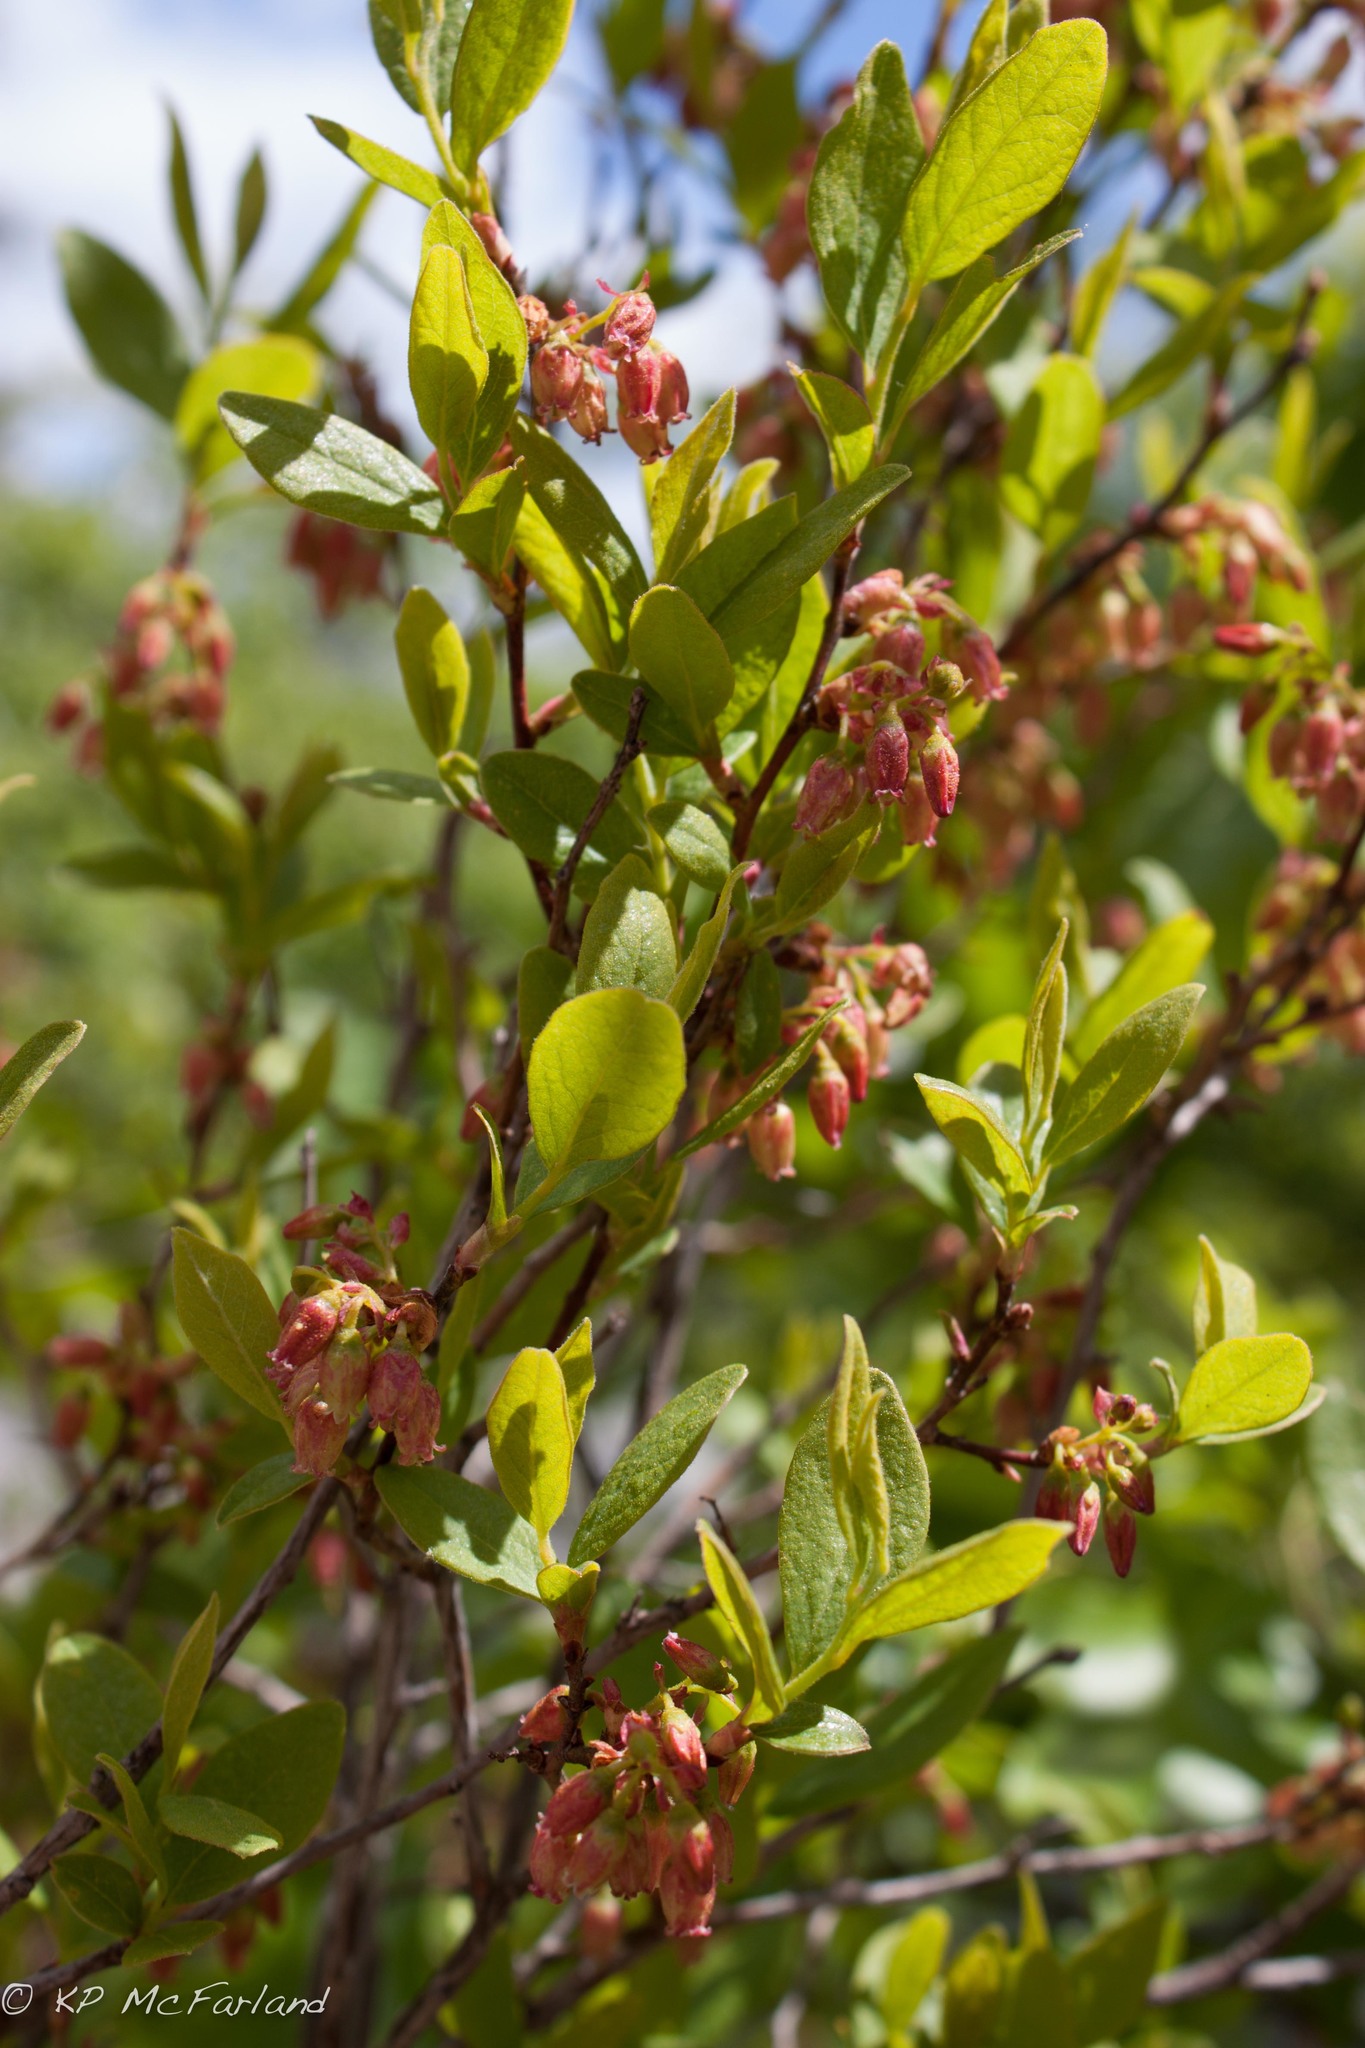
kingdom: Plantae
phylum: Tracheophyta
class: Magnoliopsida
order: Ericales
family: Ericaceae
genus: Gaylussacia
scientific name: Gaylussacia baccata
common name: Black huckleberry
